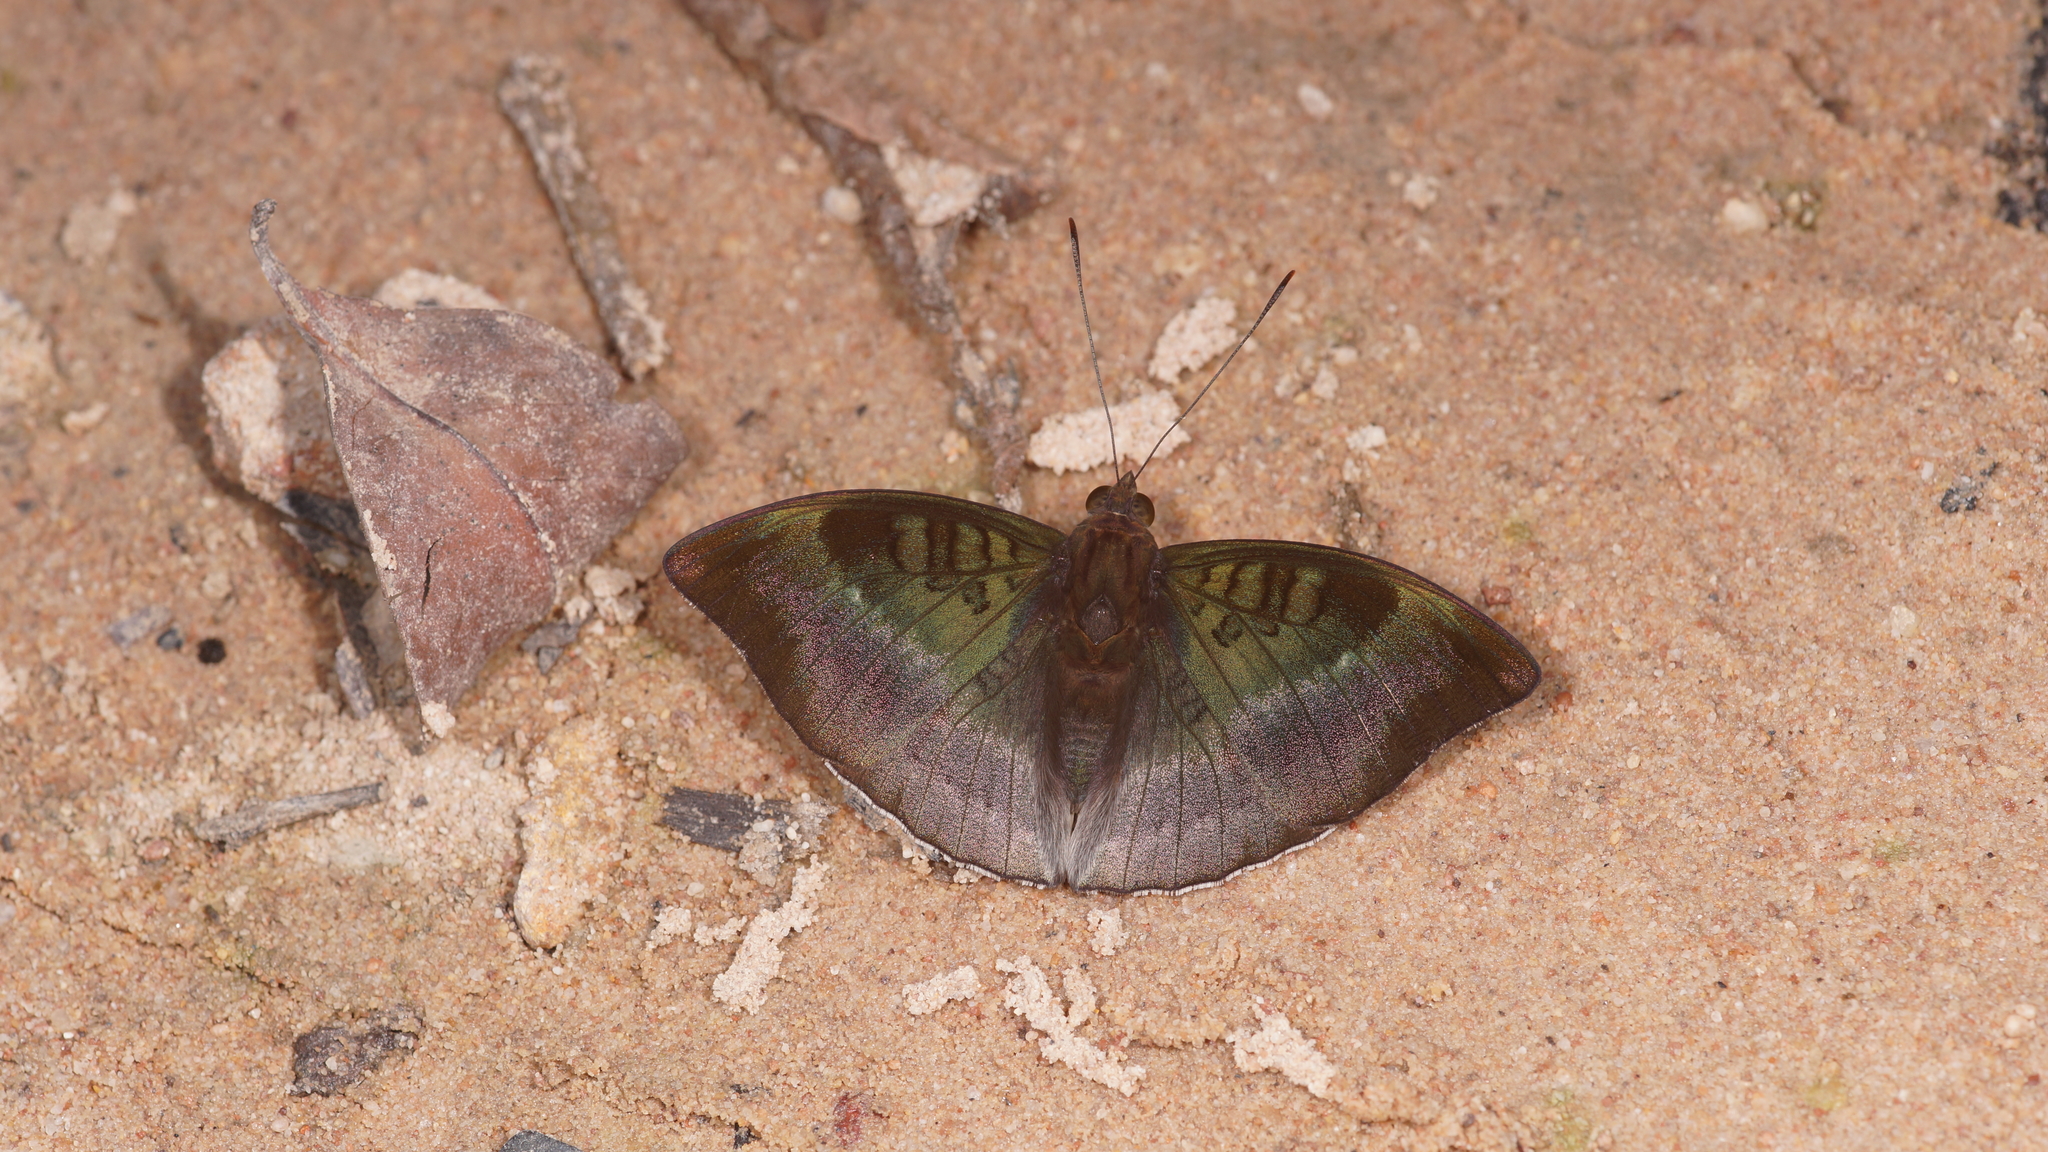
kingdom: Animalia
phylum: Arthropoda
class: Insecta
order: Lepidoptera
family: Nymphalidae
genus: Euthalia
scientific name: Euthalia monina
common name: Powdered baron
